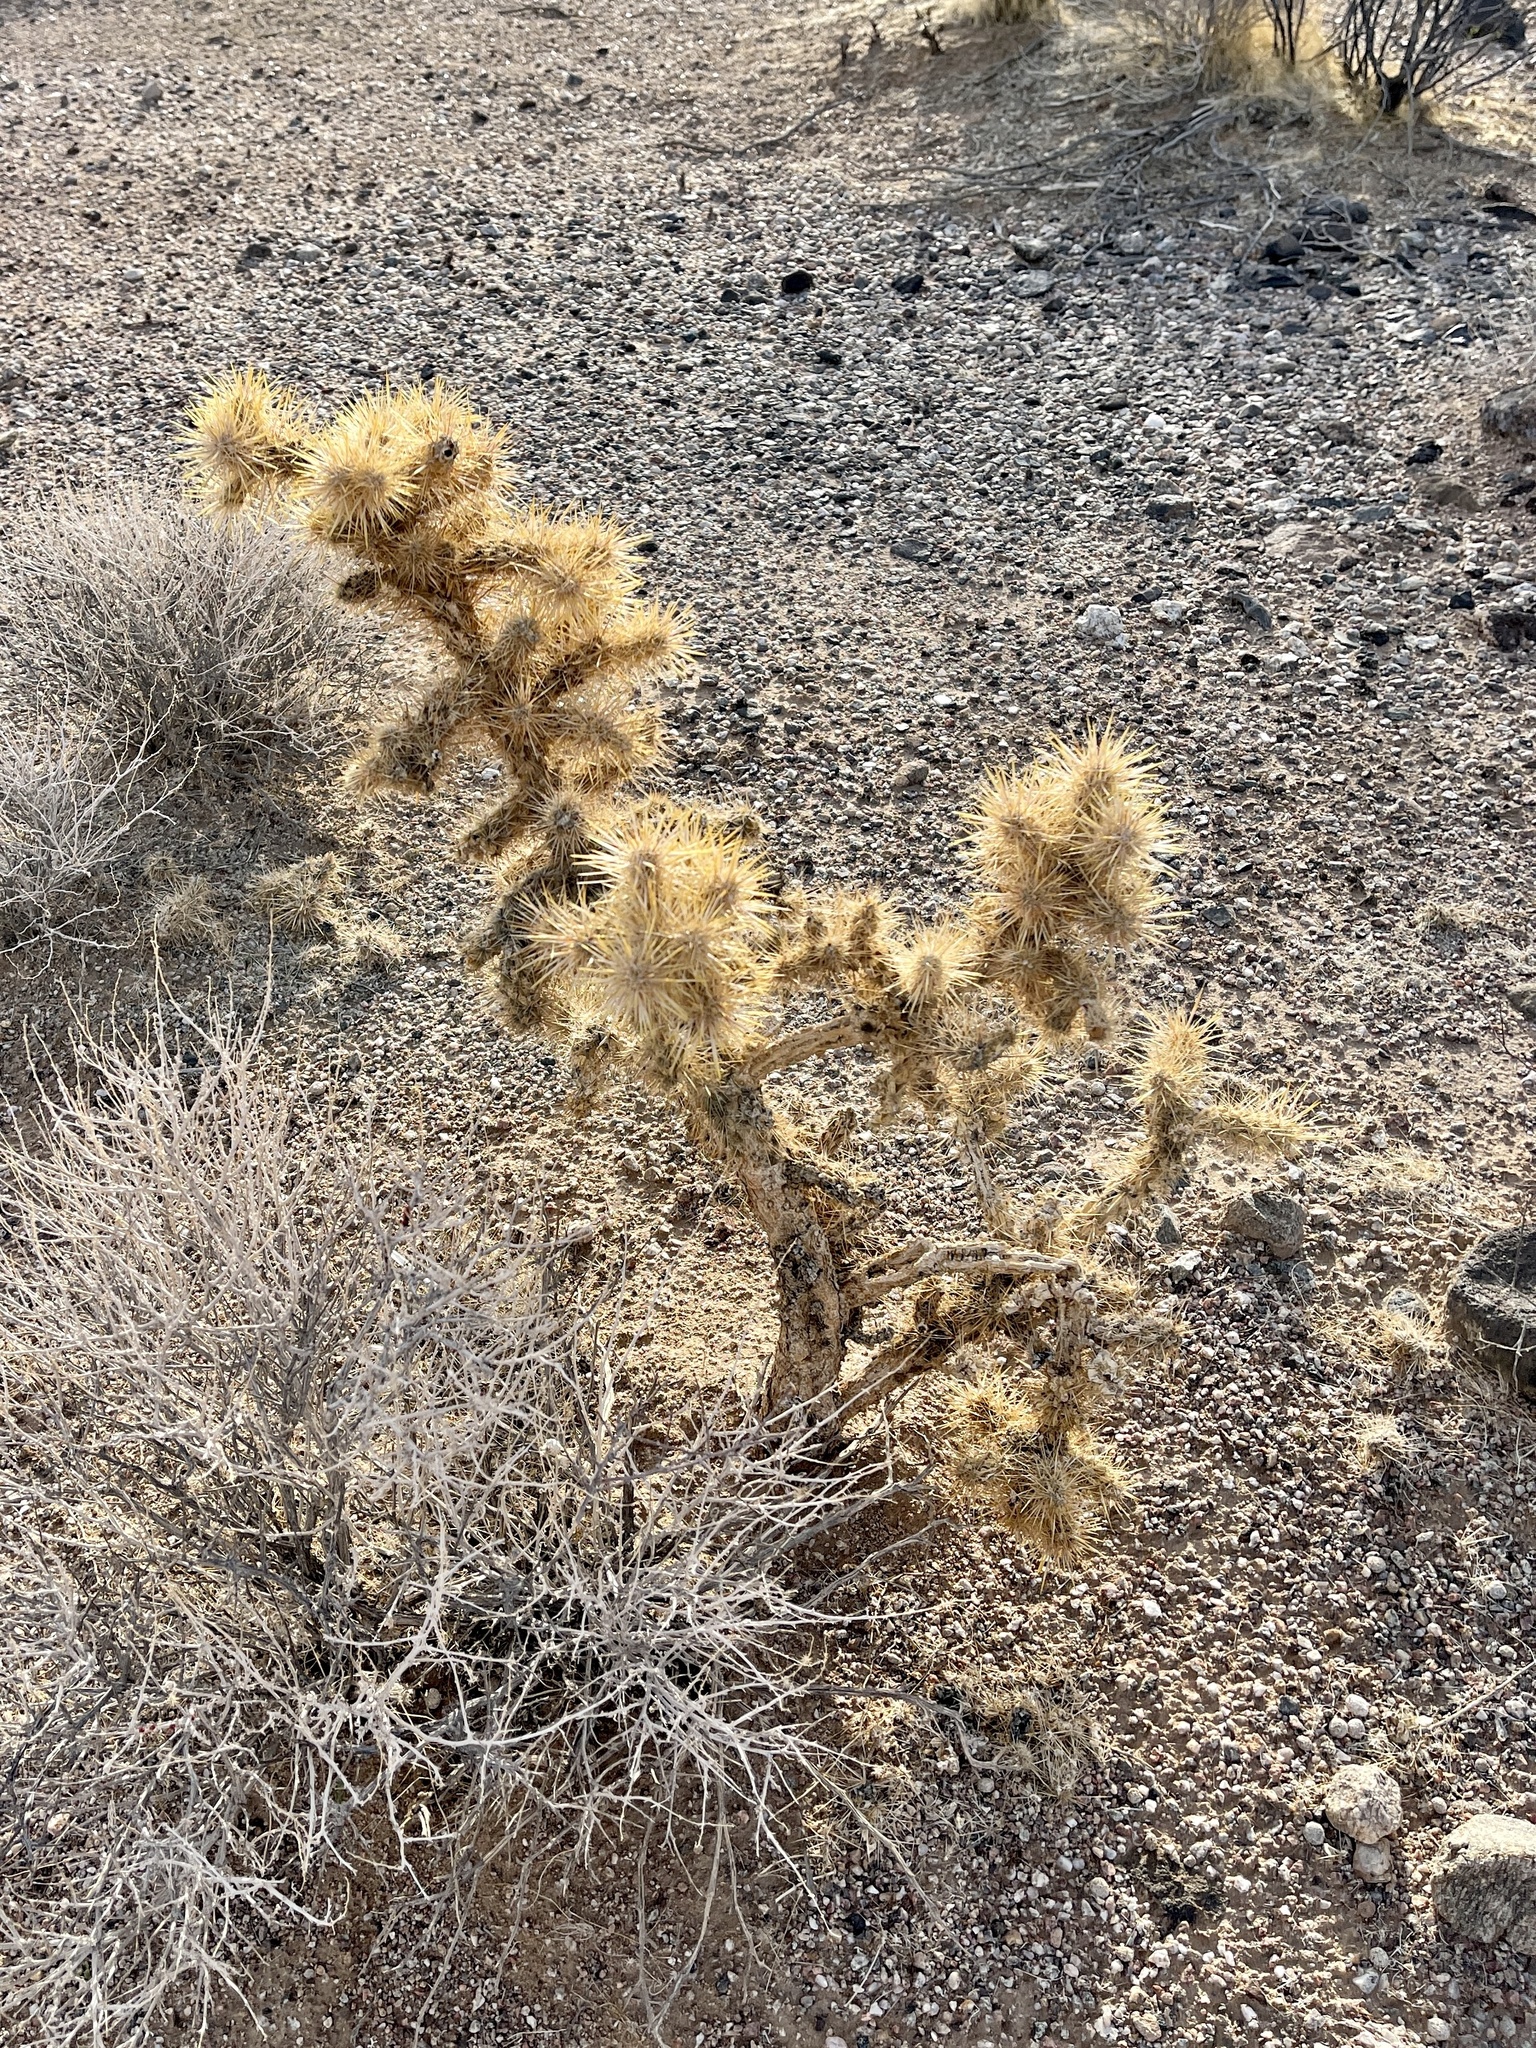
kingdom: Plantae
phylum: Tracheophyta
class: Magnoliopsida
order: Caryophyllales
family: Cactaceae
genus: Cylindropuntia
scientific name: Cylindropuntia echinocarpa
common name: Ground cholla
